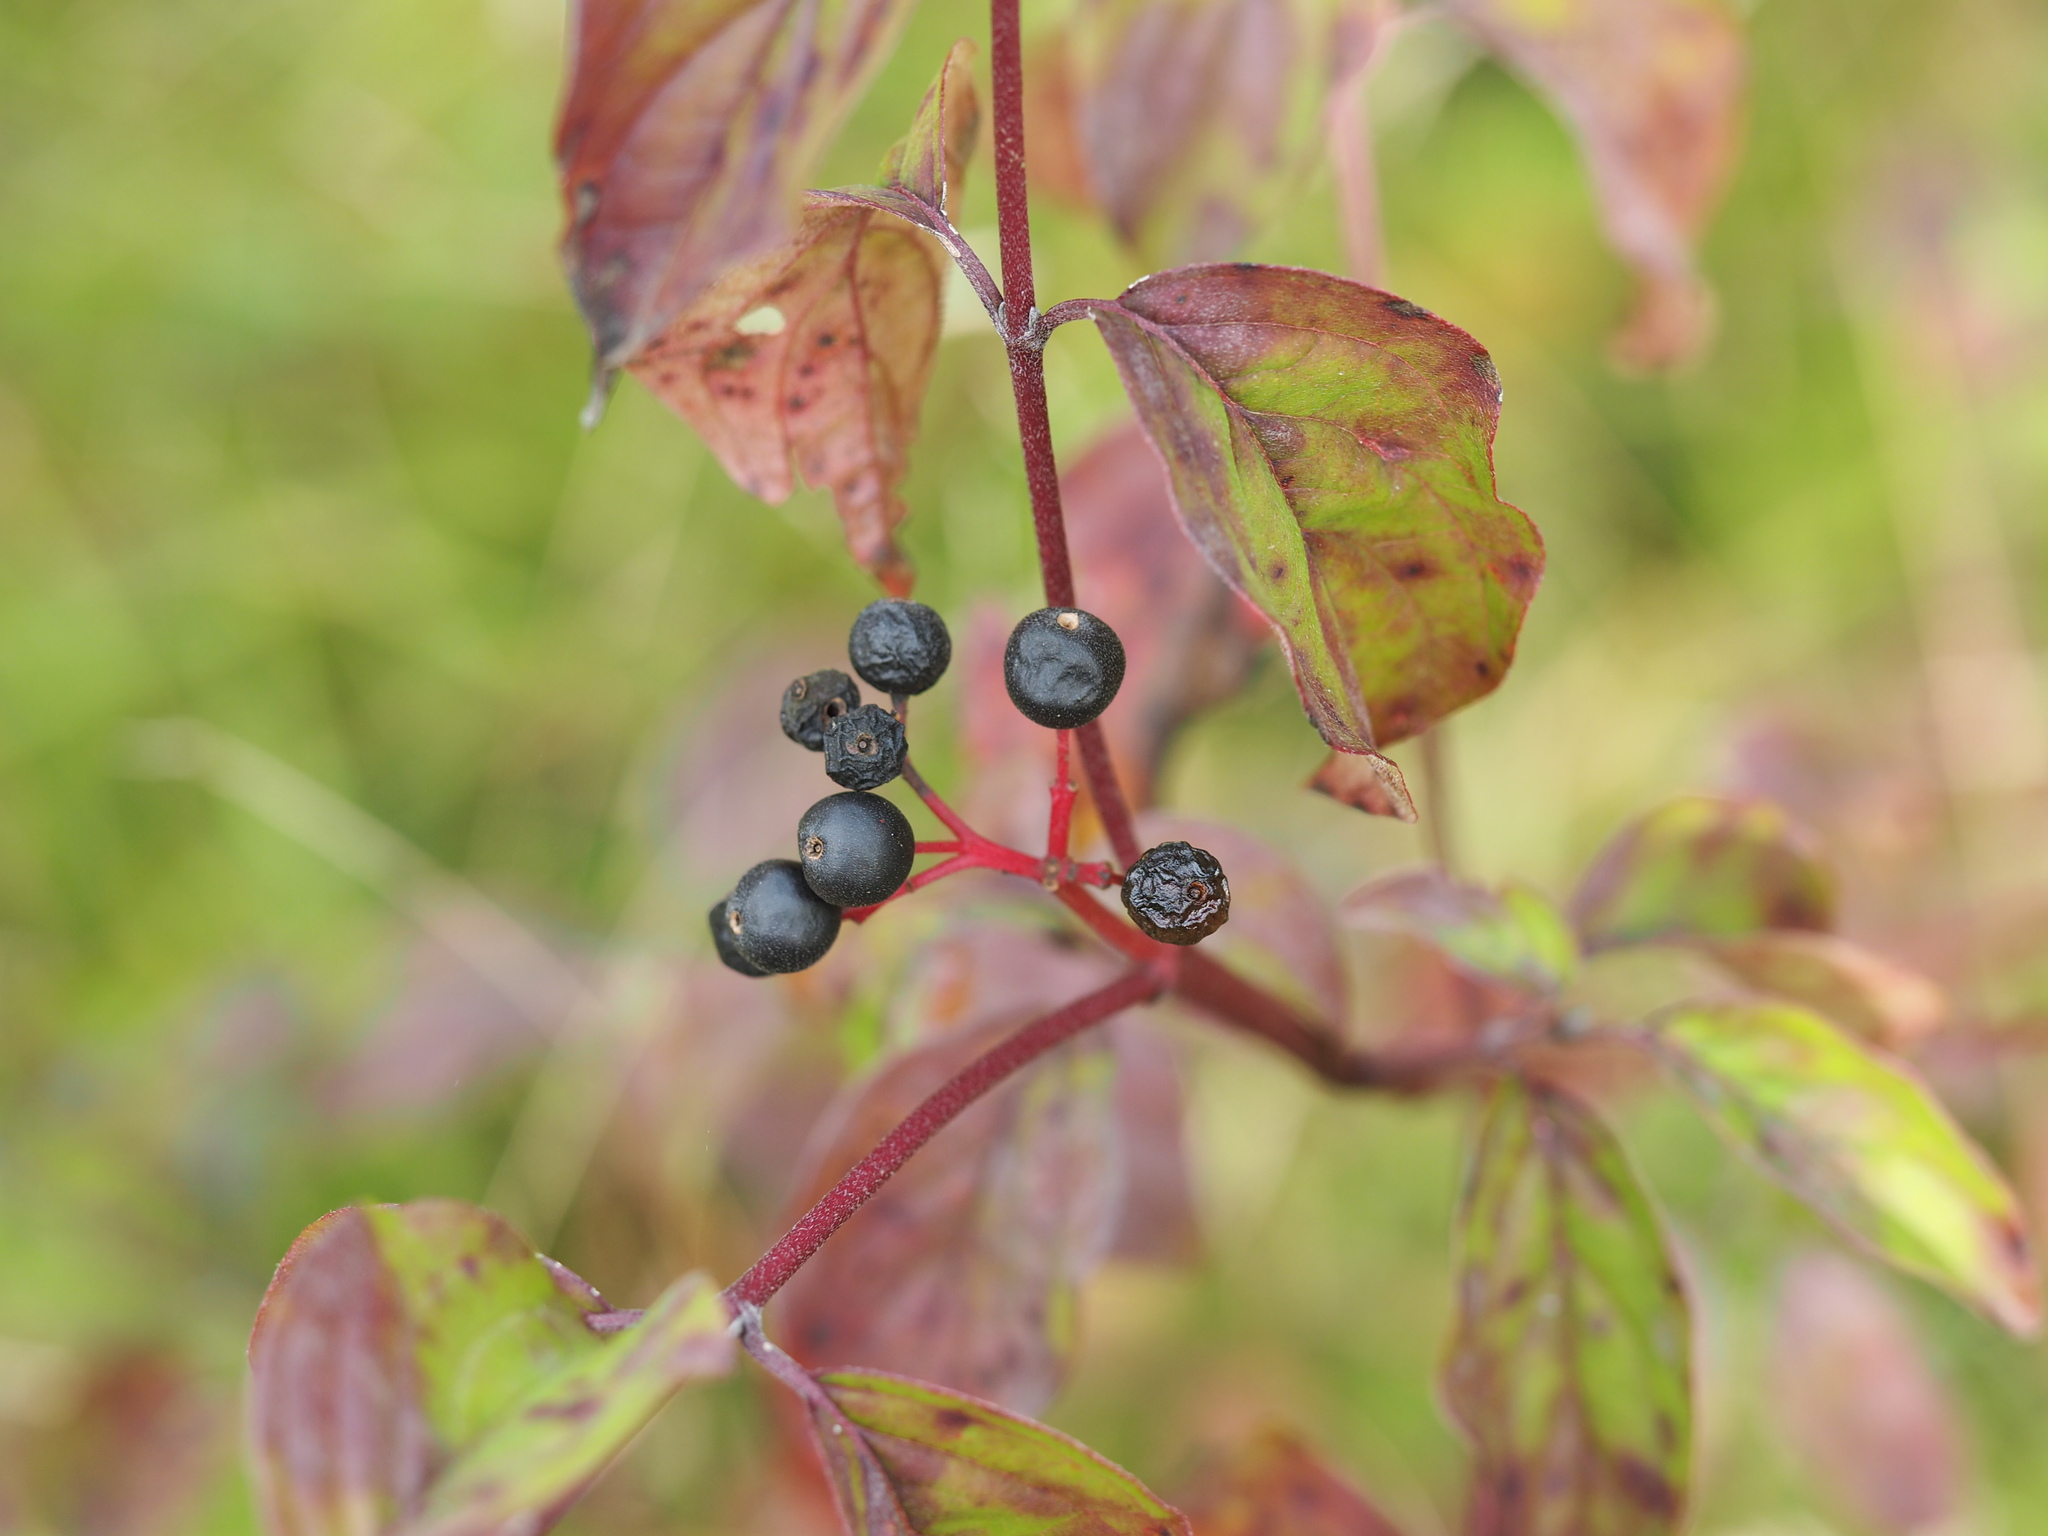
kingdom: Plantae
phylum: Tracheophyta
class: Magnoliopsida
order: Cornales
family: Cornaceae
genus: Cornus
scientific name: Cornus sanguinea
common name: Dogwood
